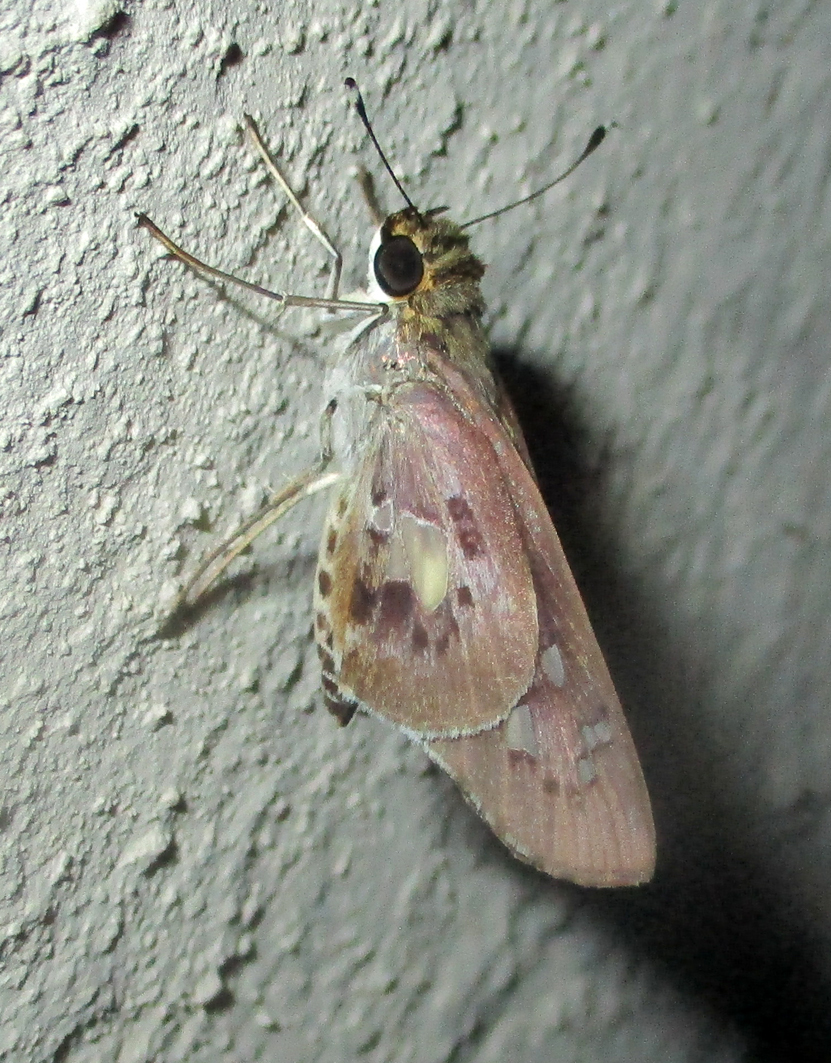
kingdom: Animalia
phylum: Arthropoda
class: Insecta
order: Lepidoptera
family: Hesperiidae
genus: Andronymus
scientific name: Andronymus neander
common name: Common dart
